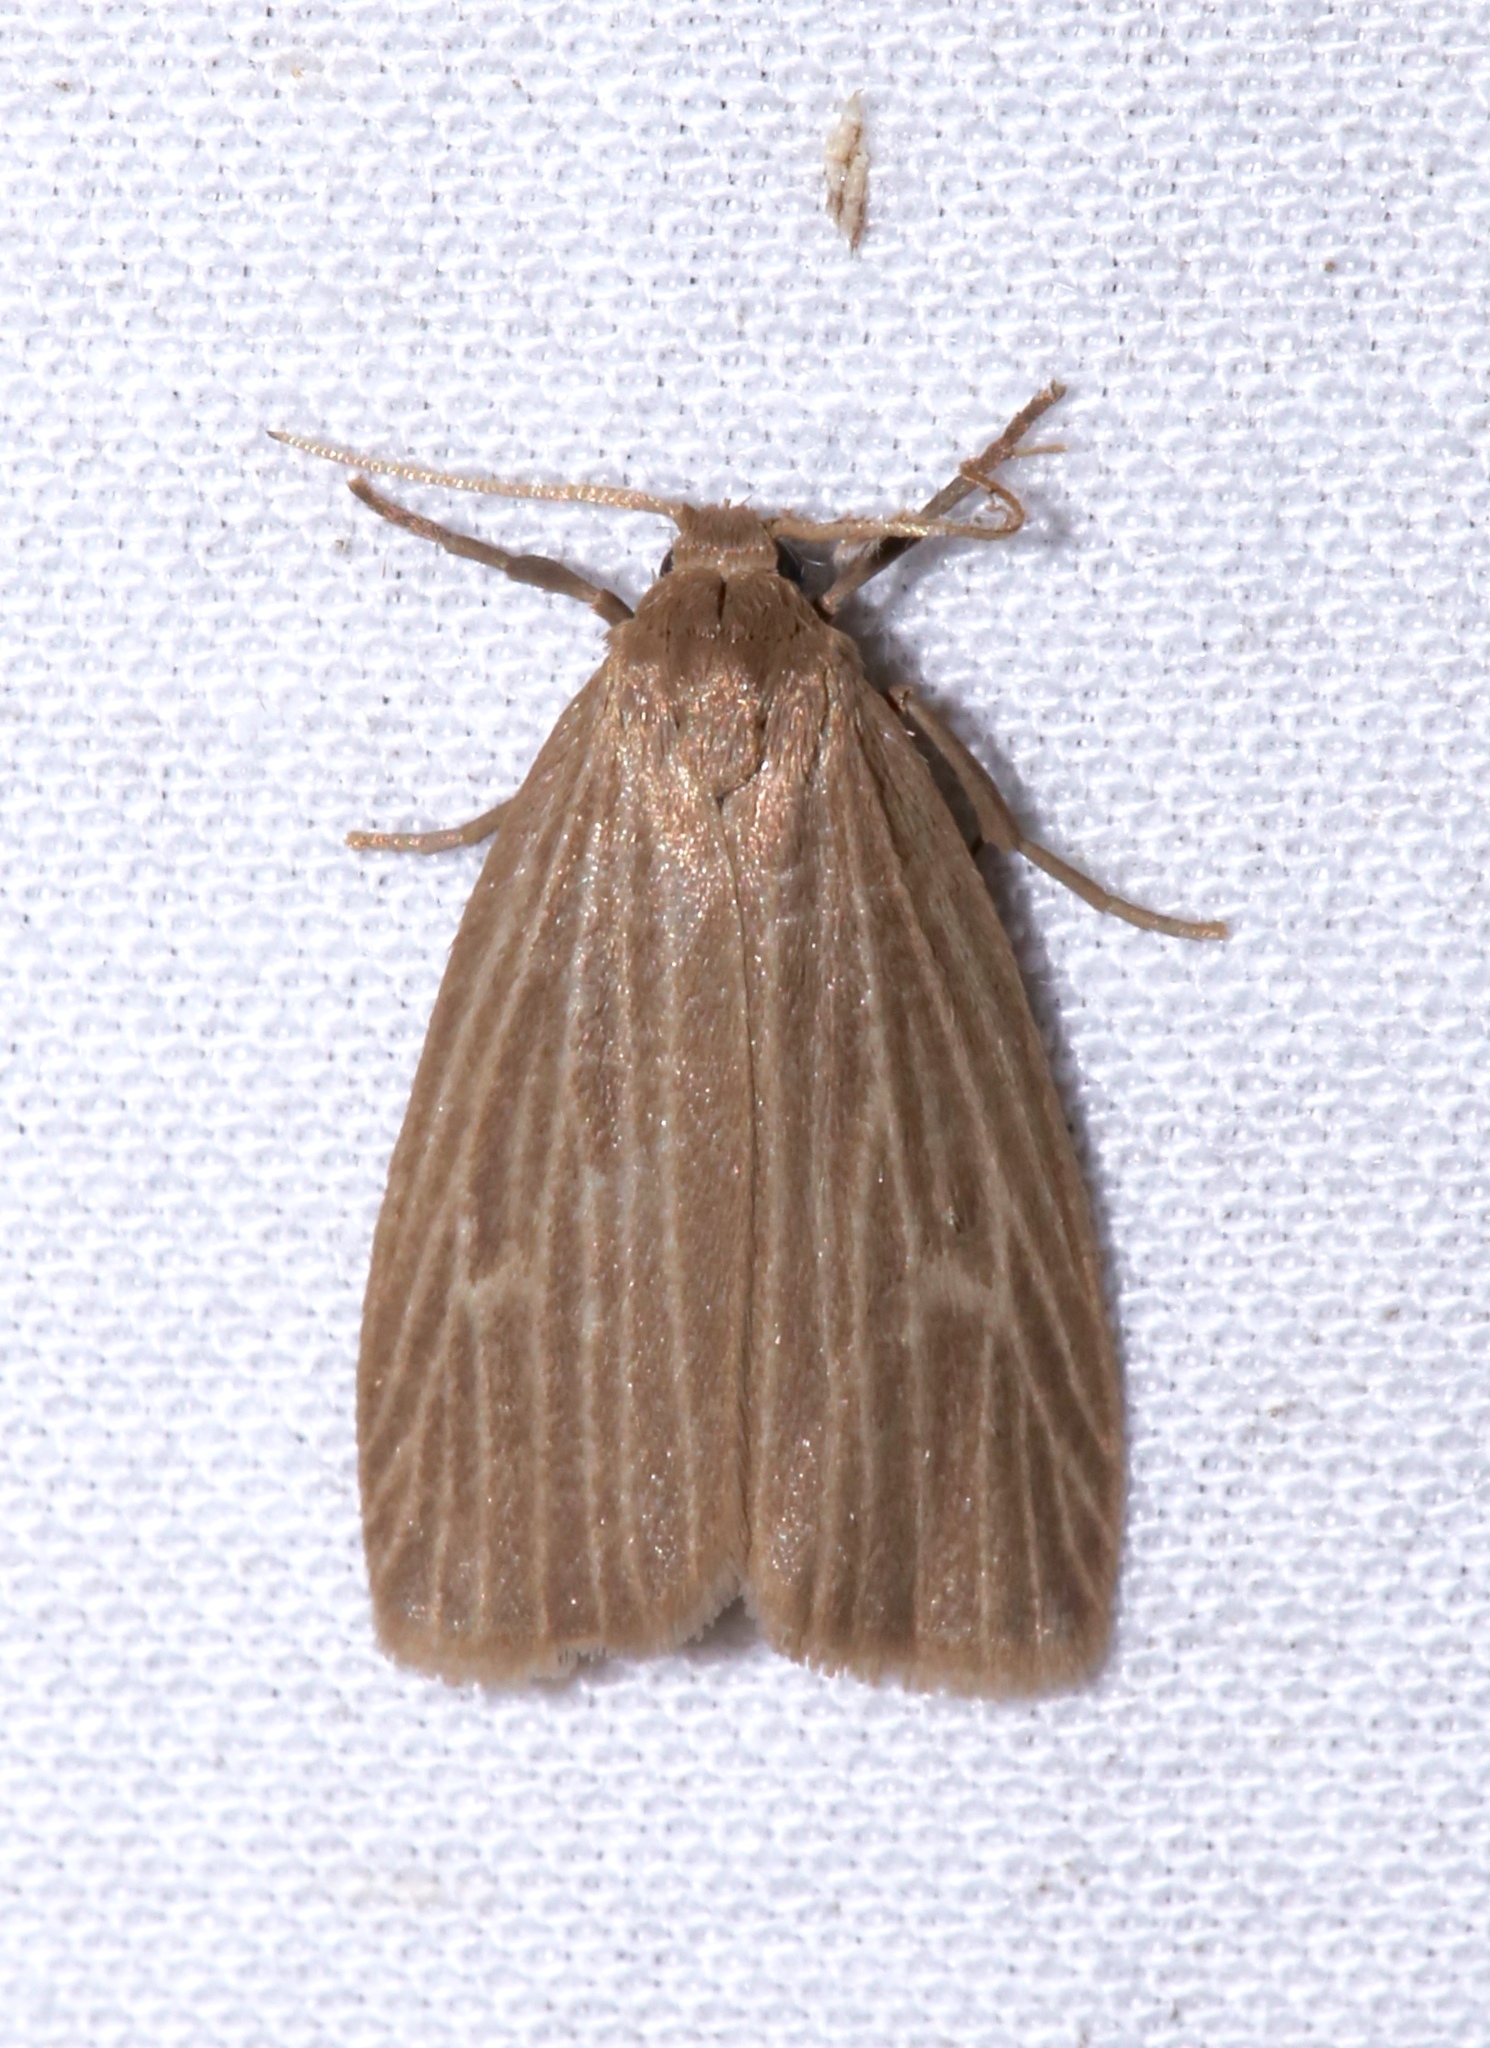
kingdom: Animalia
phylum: Arthropoda
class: Insecta
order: Lepidoptera
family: Erebidae
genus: Crambidia
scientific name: Crambidia pallida
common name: Pale lichen moth
